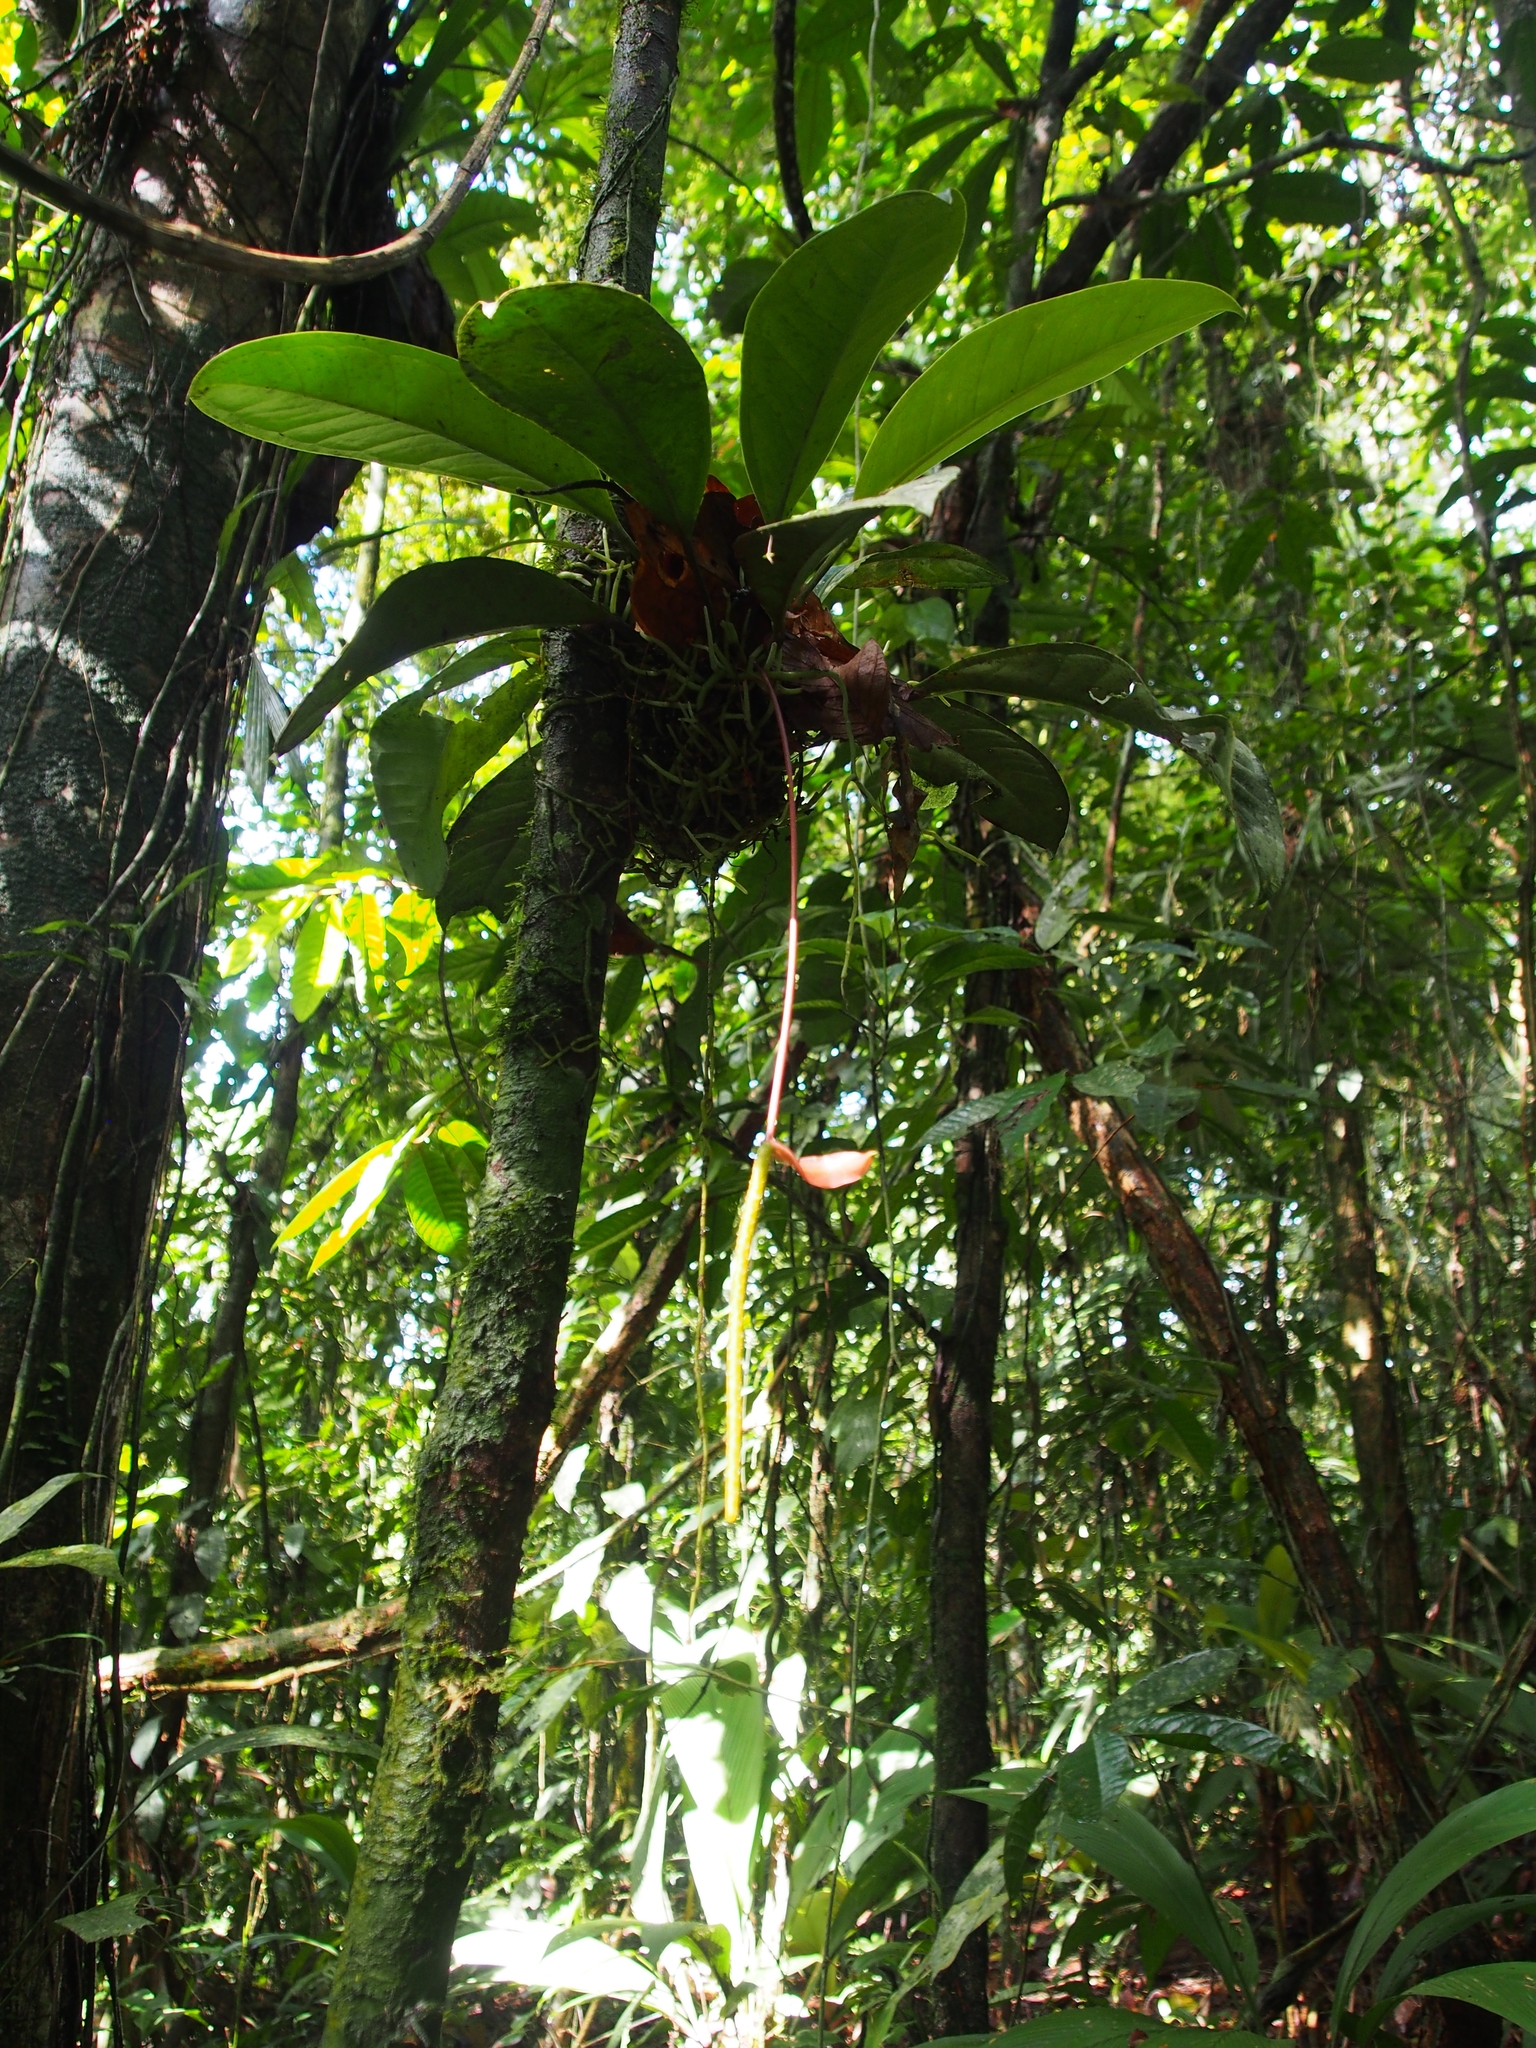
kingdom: Plantae
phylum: Tracheophyta
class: Liliopsida
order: Alismatales
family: Araceae
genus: Anthurium
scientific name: Anthurium acutangulum
